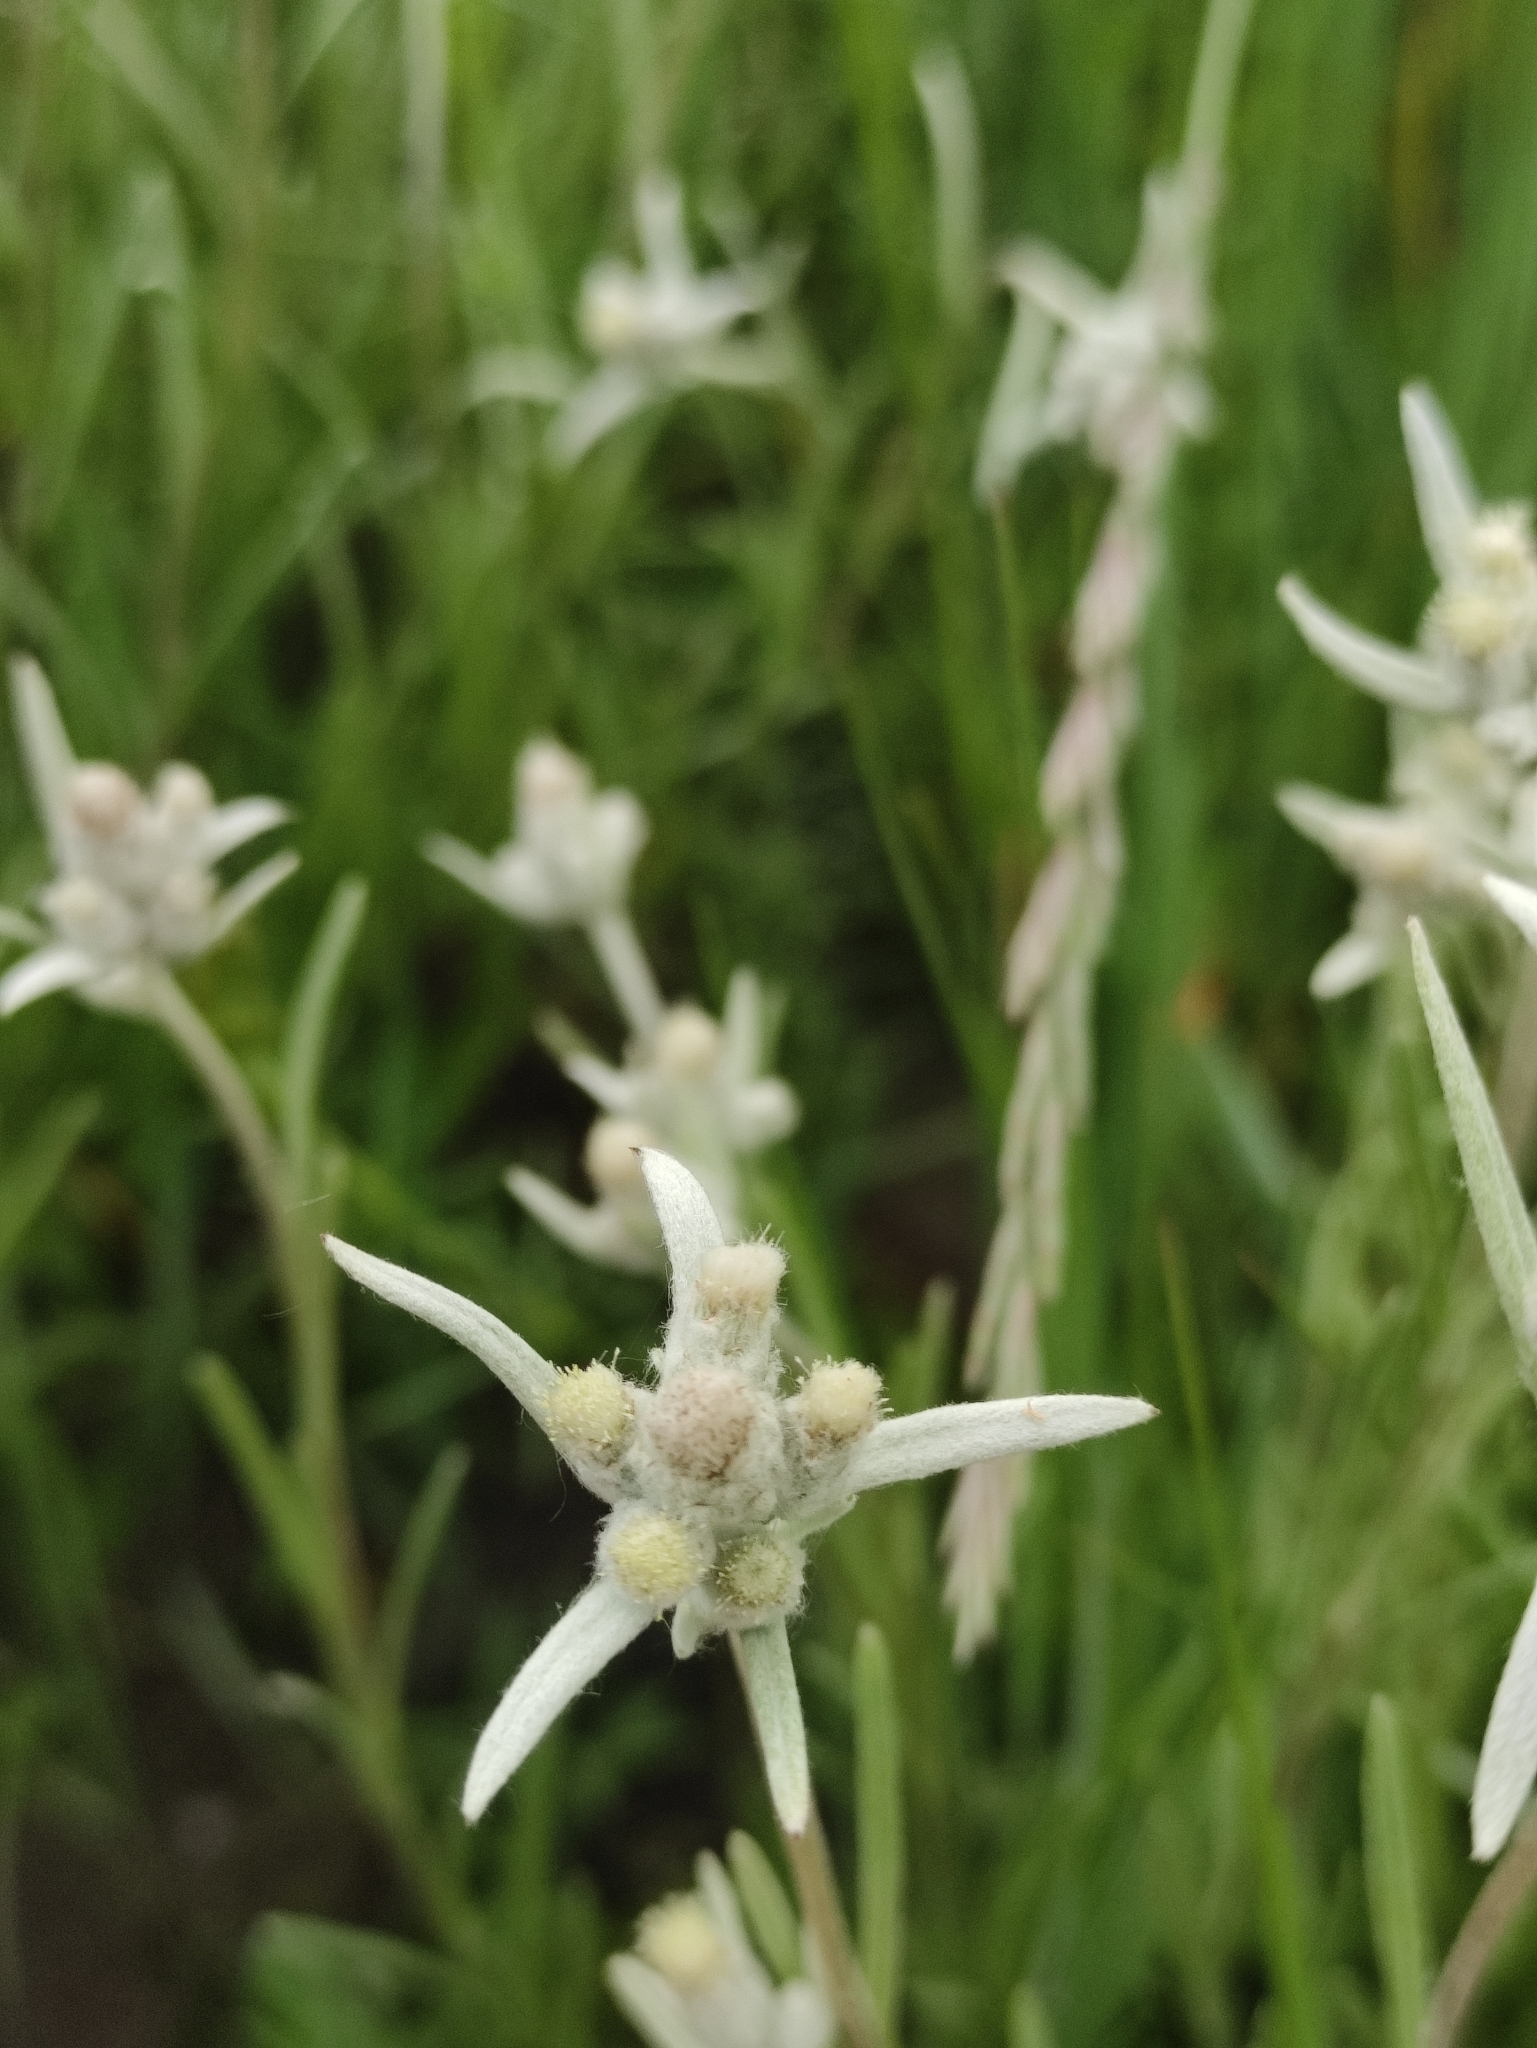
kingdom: Plantae
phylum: Tracheophyta
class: Magnoliopsida
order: Asterales
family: Asteraceae
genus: Leontopodium
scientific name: Leontopodium leontopodioides
